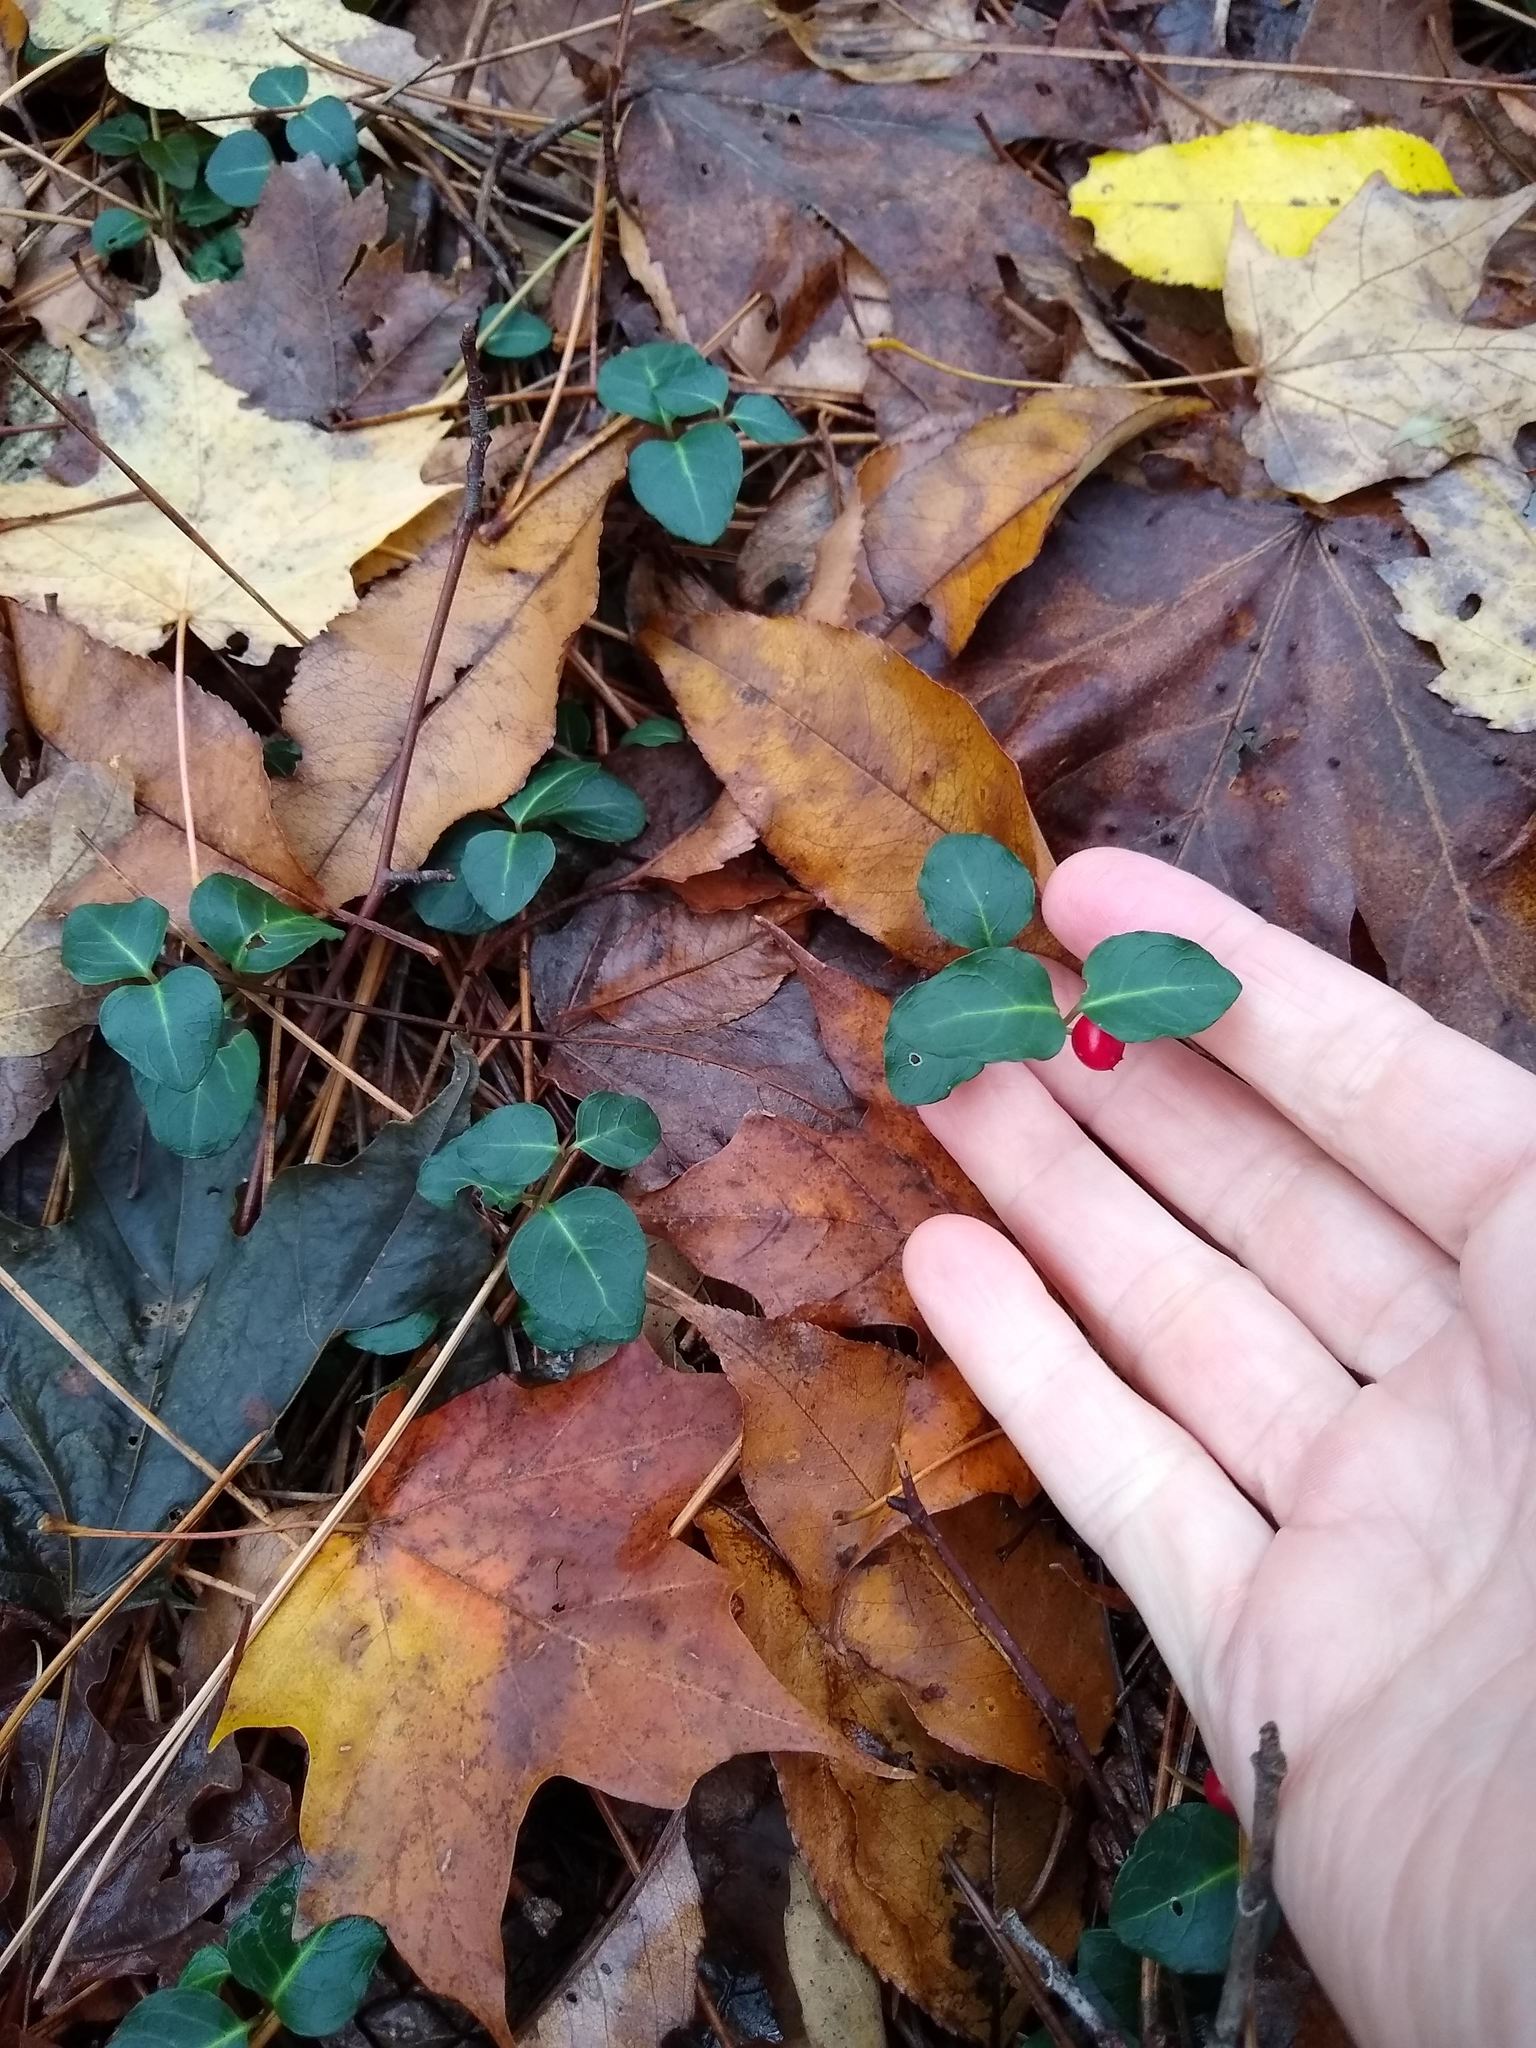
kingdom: Plantae
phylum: Tracheophyta
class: Magnoliopsida
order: Gentianales
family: Rubiaceae
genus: Mitchella
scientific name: Mitchella repens
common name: Partridge-berry
